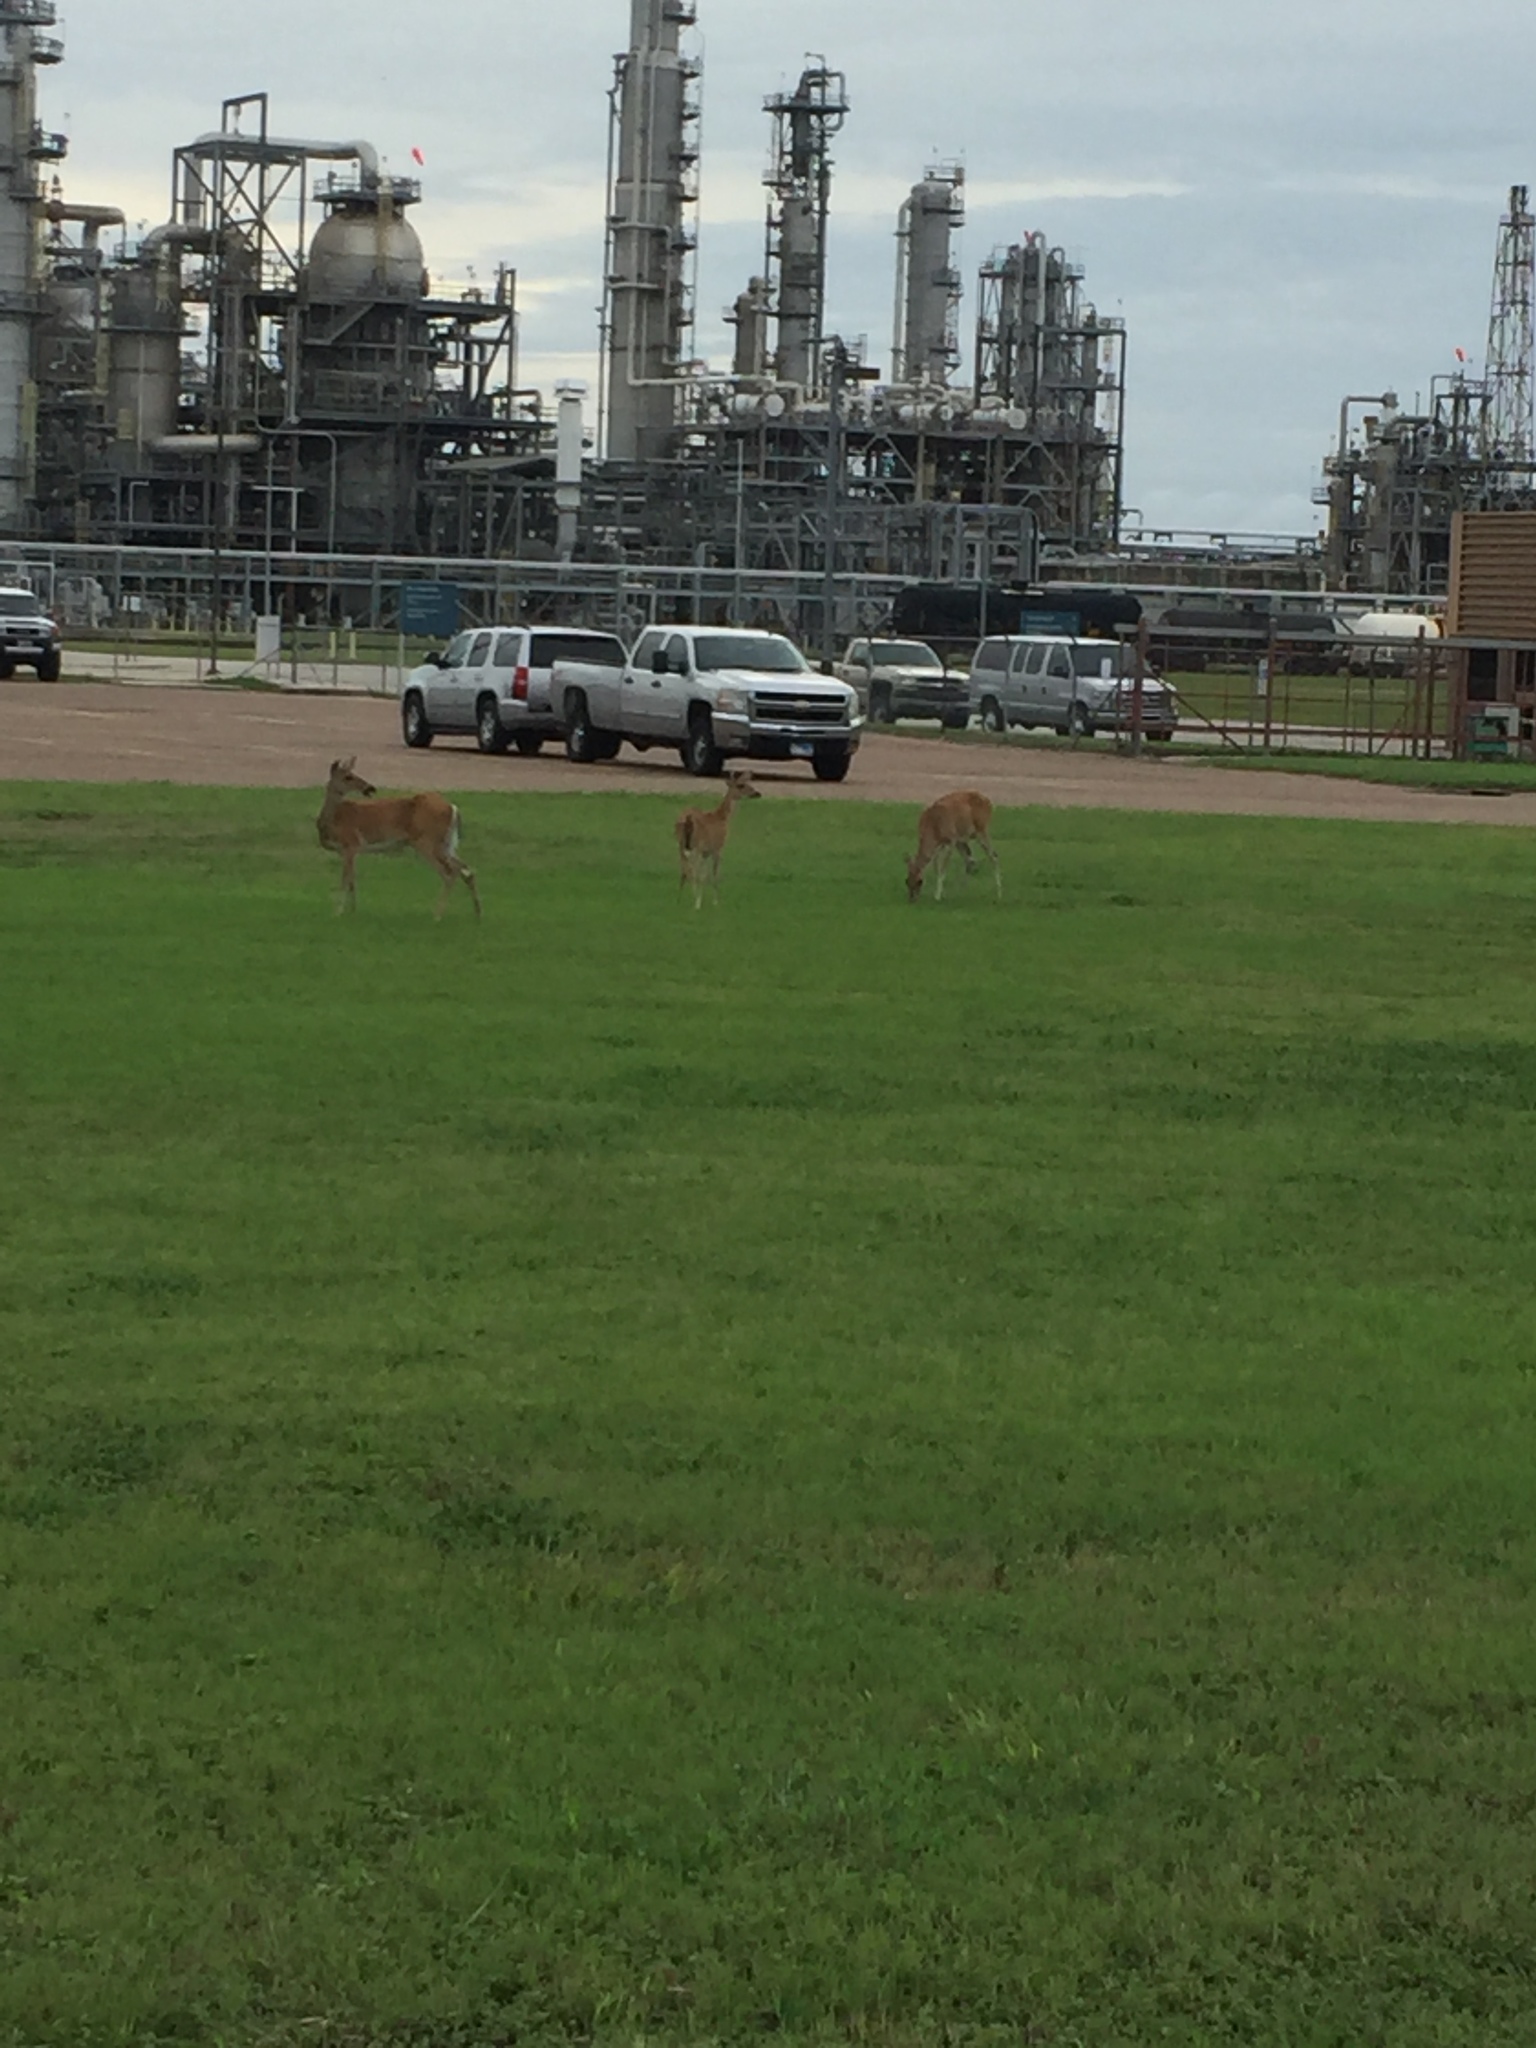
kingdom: Animalia
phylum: Chordata
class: Mammalia
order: Artiodactyla
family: Cervidae
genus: Odocoileus
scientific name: Odocoileus virginianus
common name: White-tailed deer
